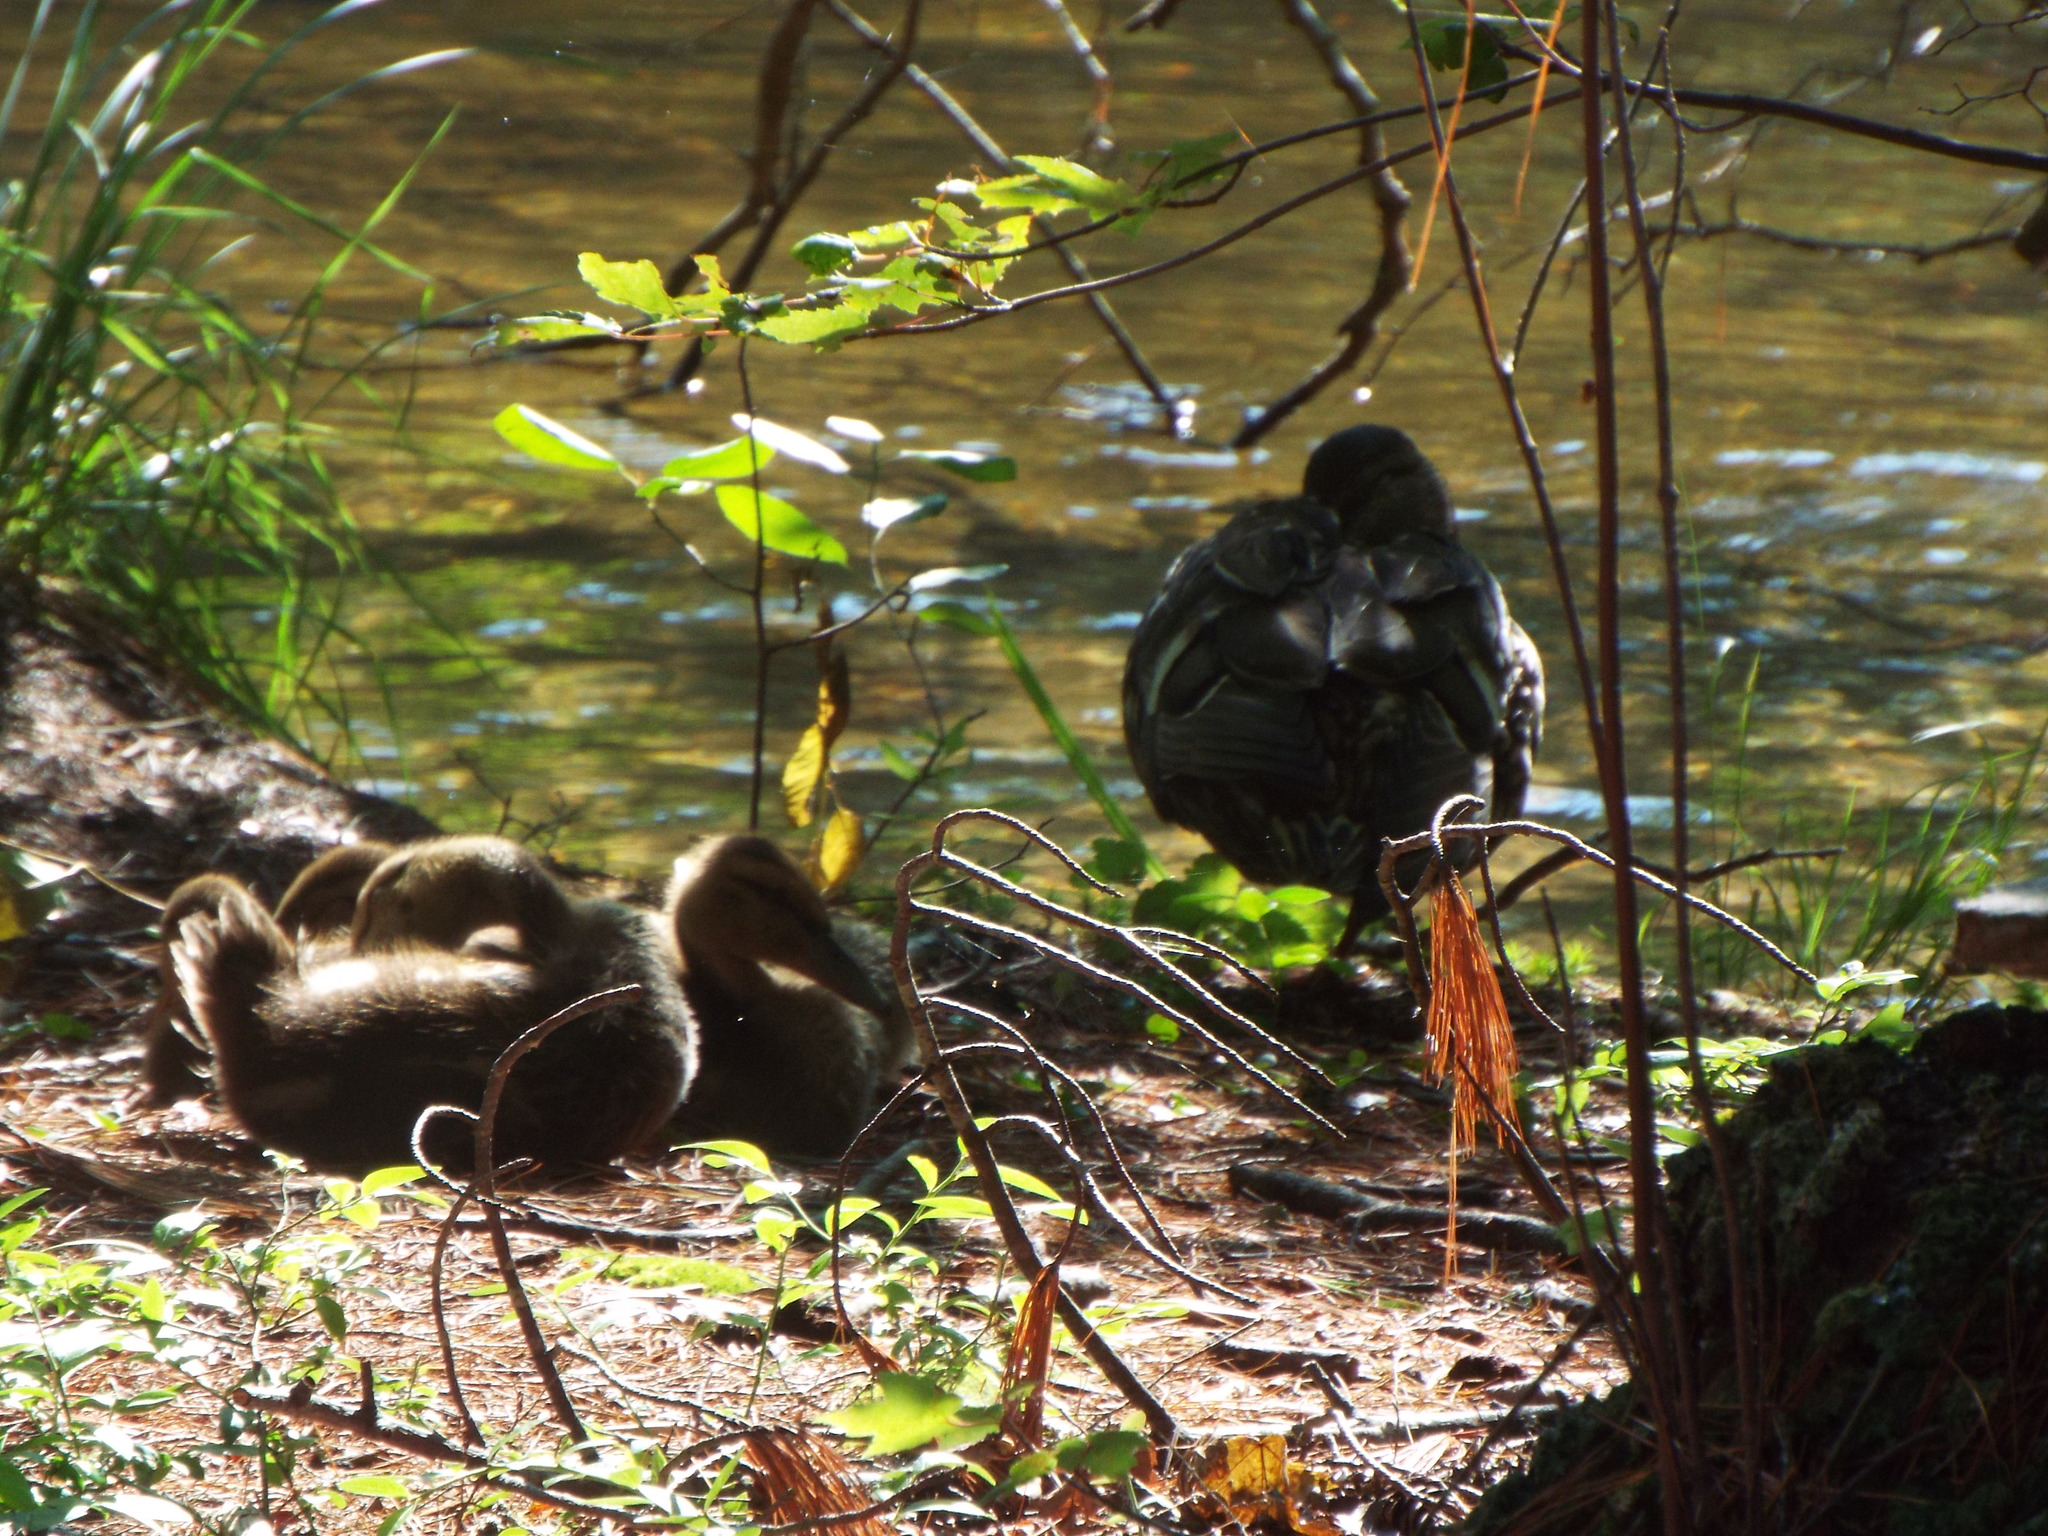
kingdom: Animalia
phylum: Chordata
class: Aves
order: Anseriformes
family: Anatidae
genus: Anas
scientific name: Anas platyrhynchos
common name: Mallard
